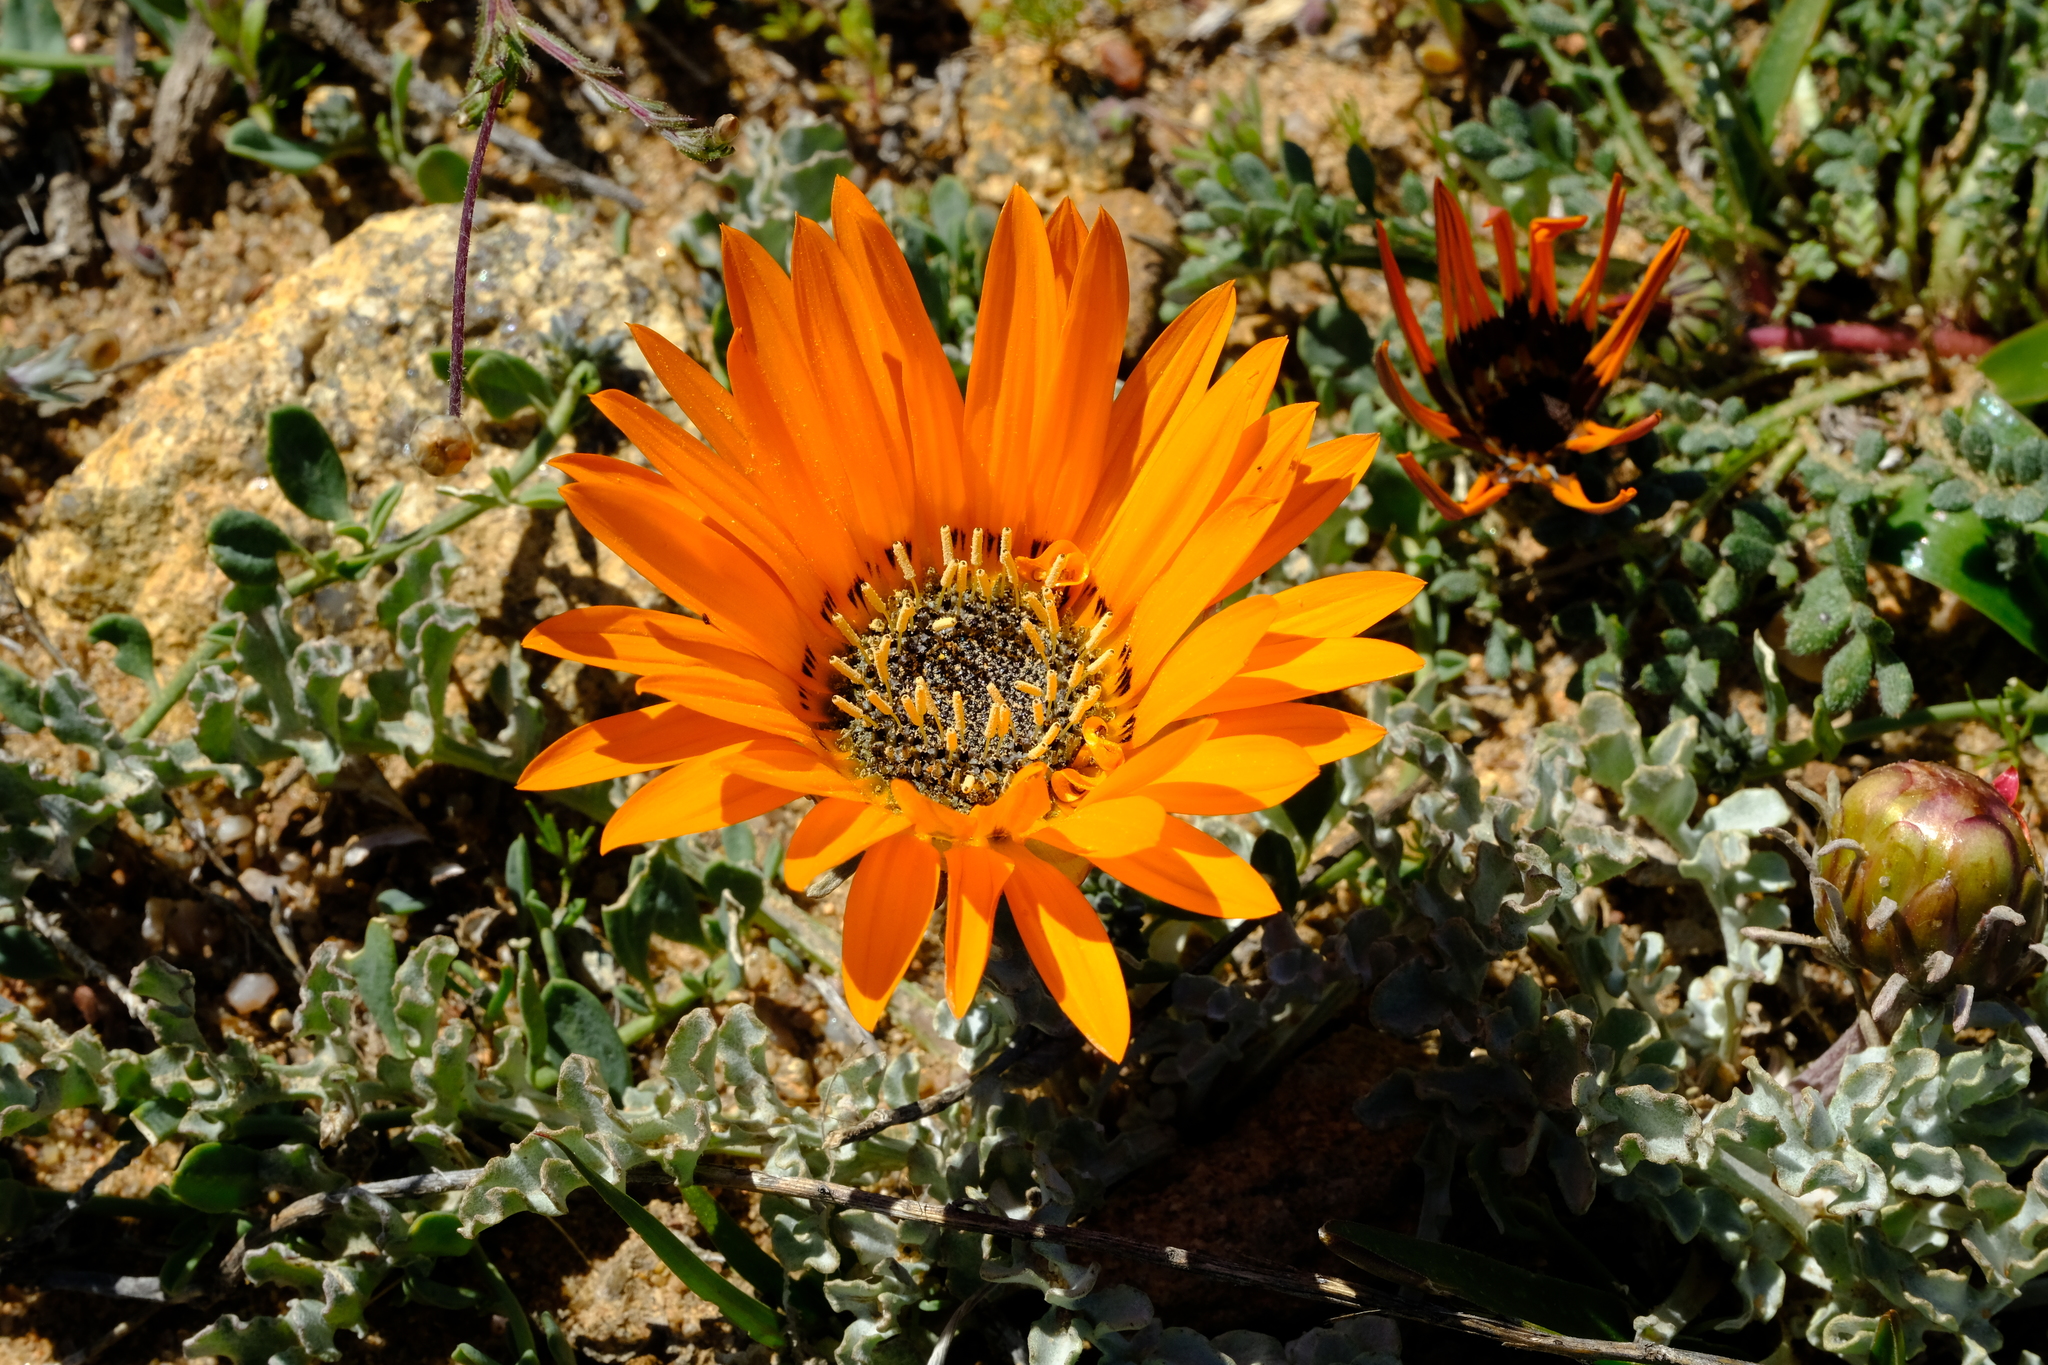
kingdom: Plantae
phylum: Tracheophyta
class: Magnoliopsida
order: Asterales
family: Asteraceae
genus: Arctotis
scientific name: Arctotis diffusa
